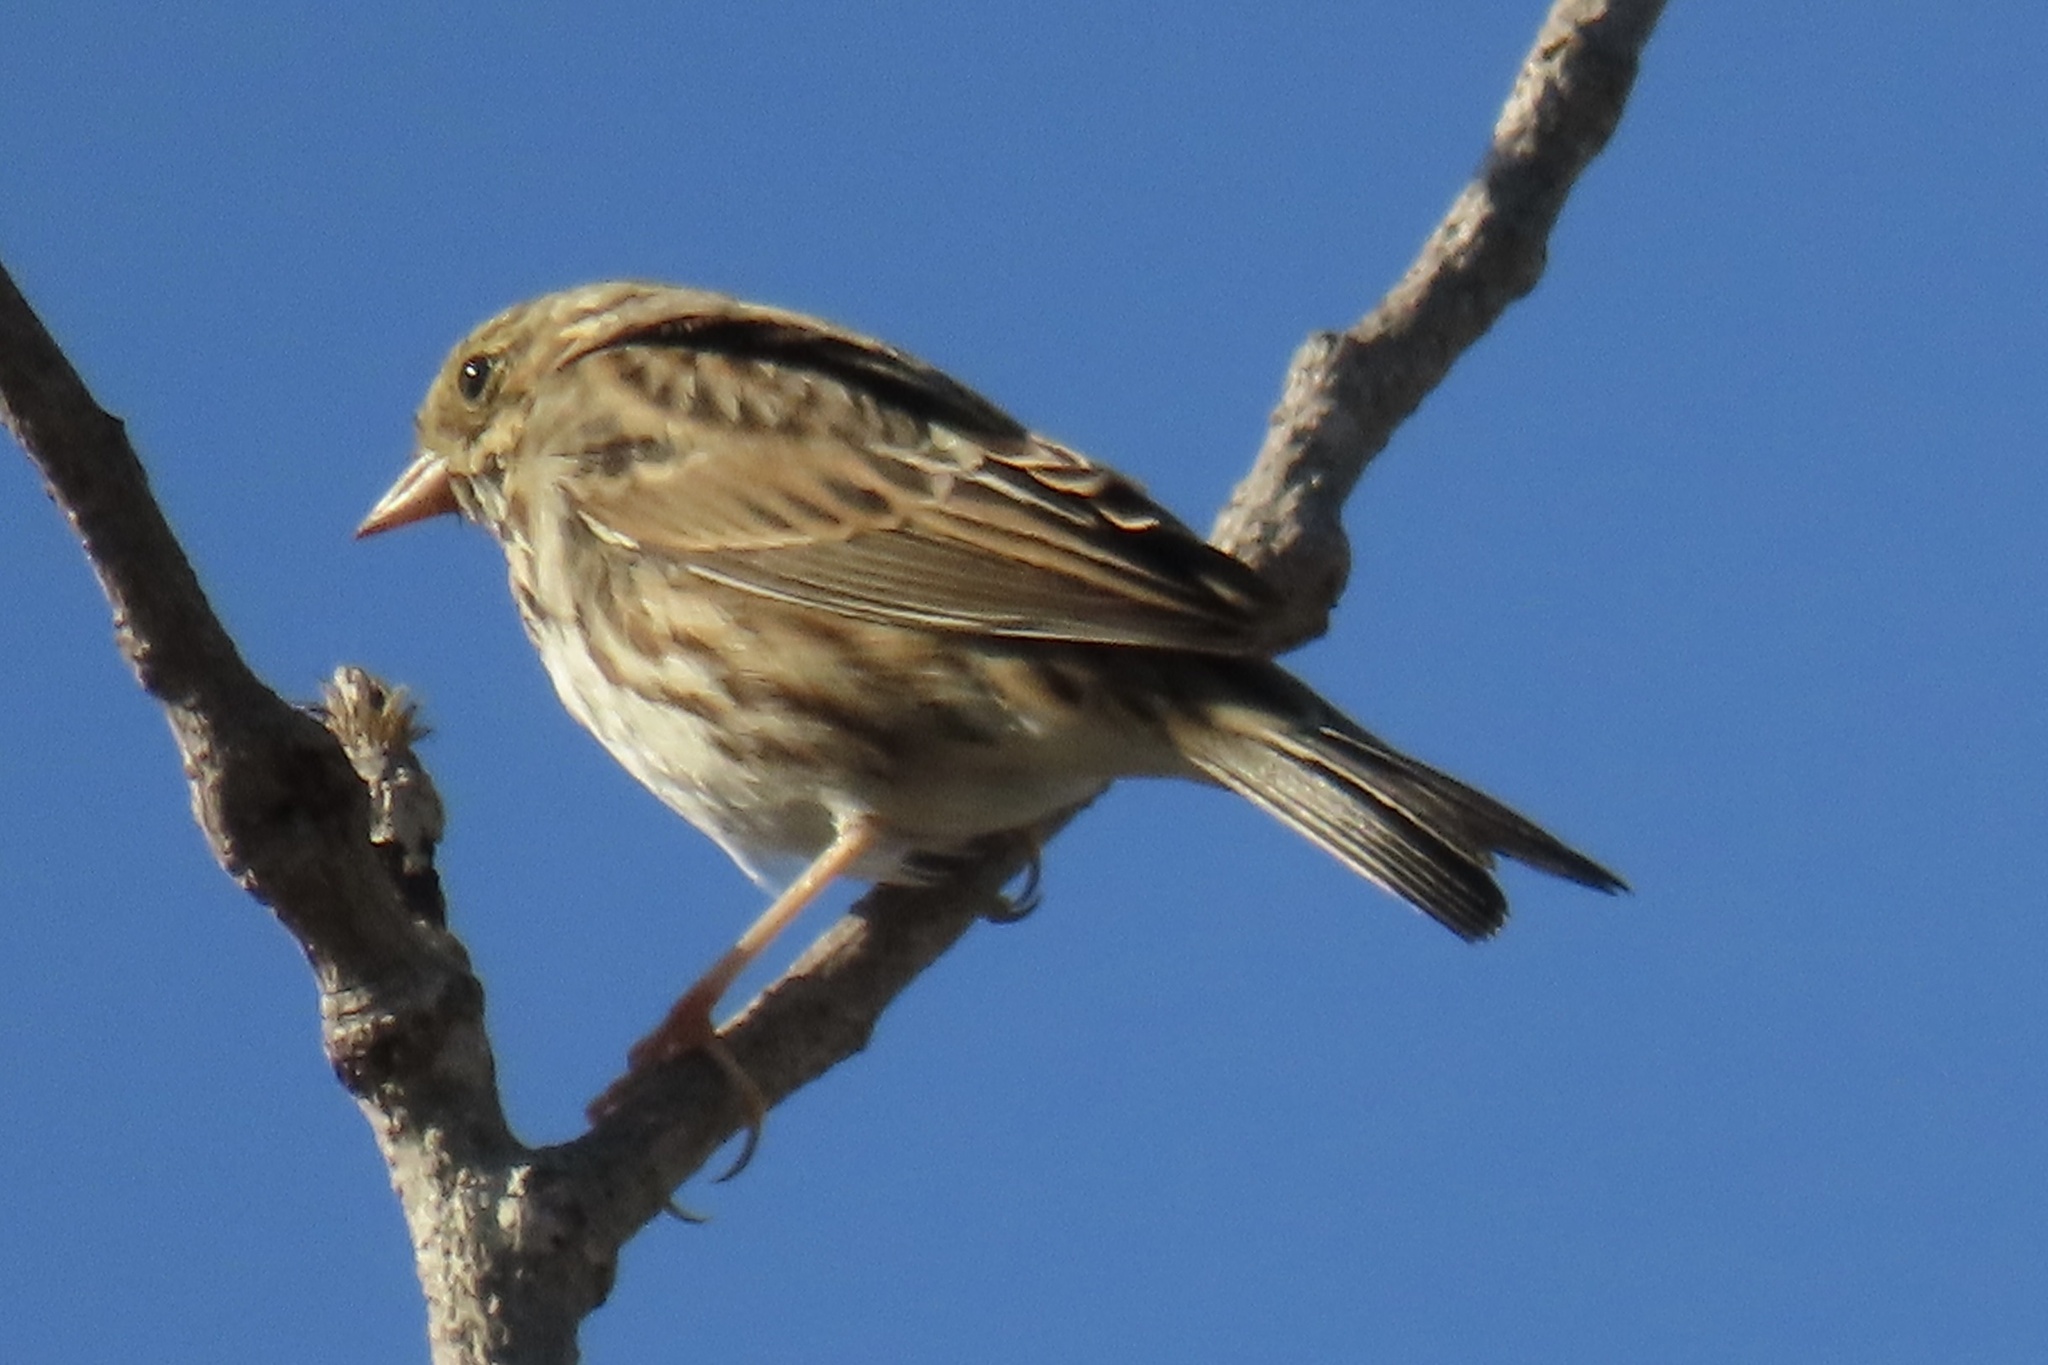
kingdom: Animalia
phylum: Chordata
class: Aves
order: Passeriformes
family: Passerellidae
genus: Passerculus
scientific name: Passerculus sandwichensis
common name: Savannah sparrow
